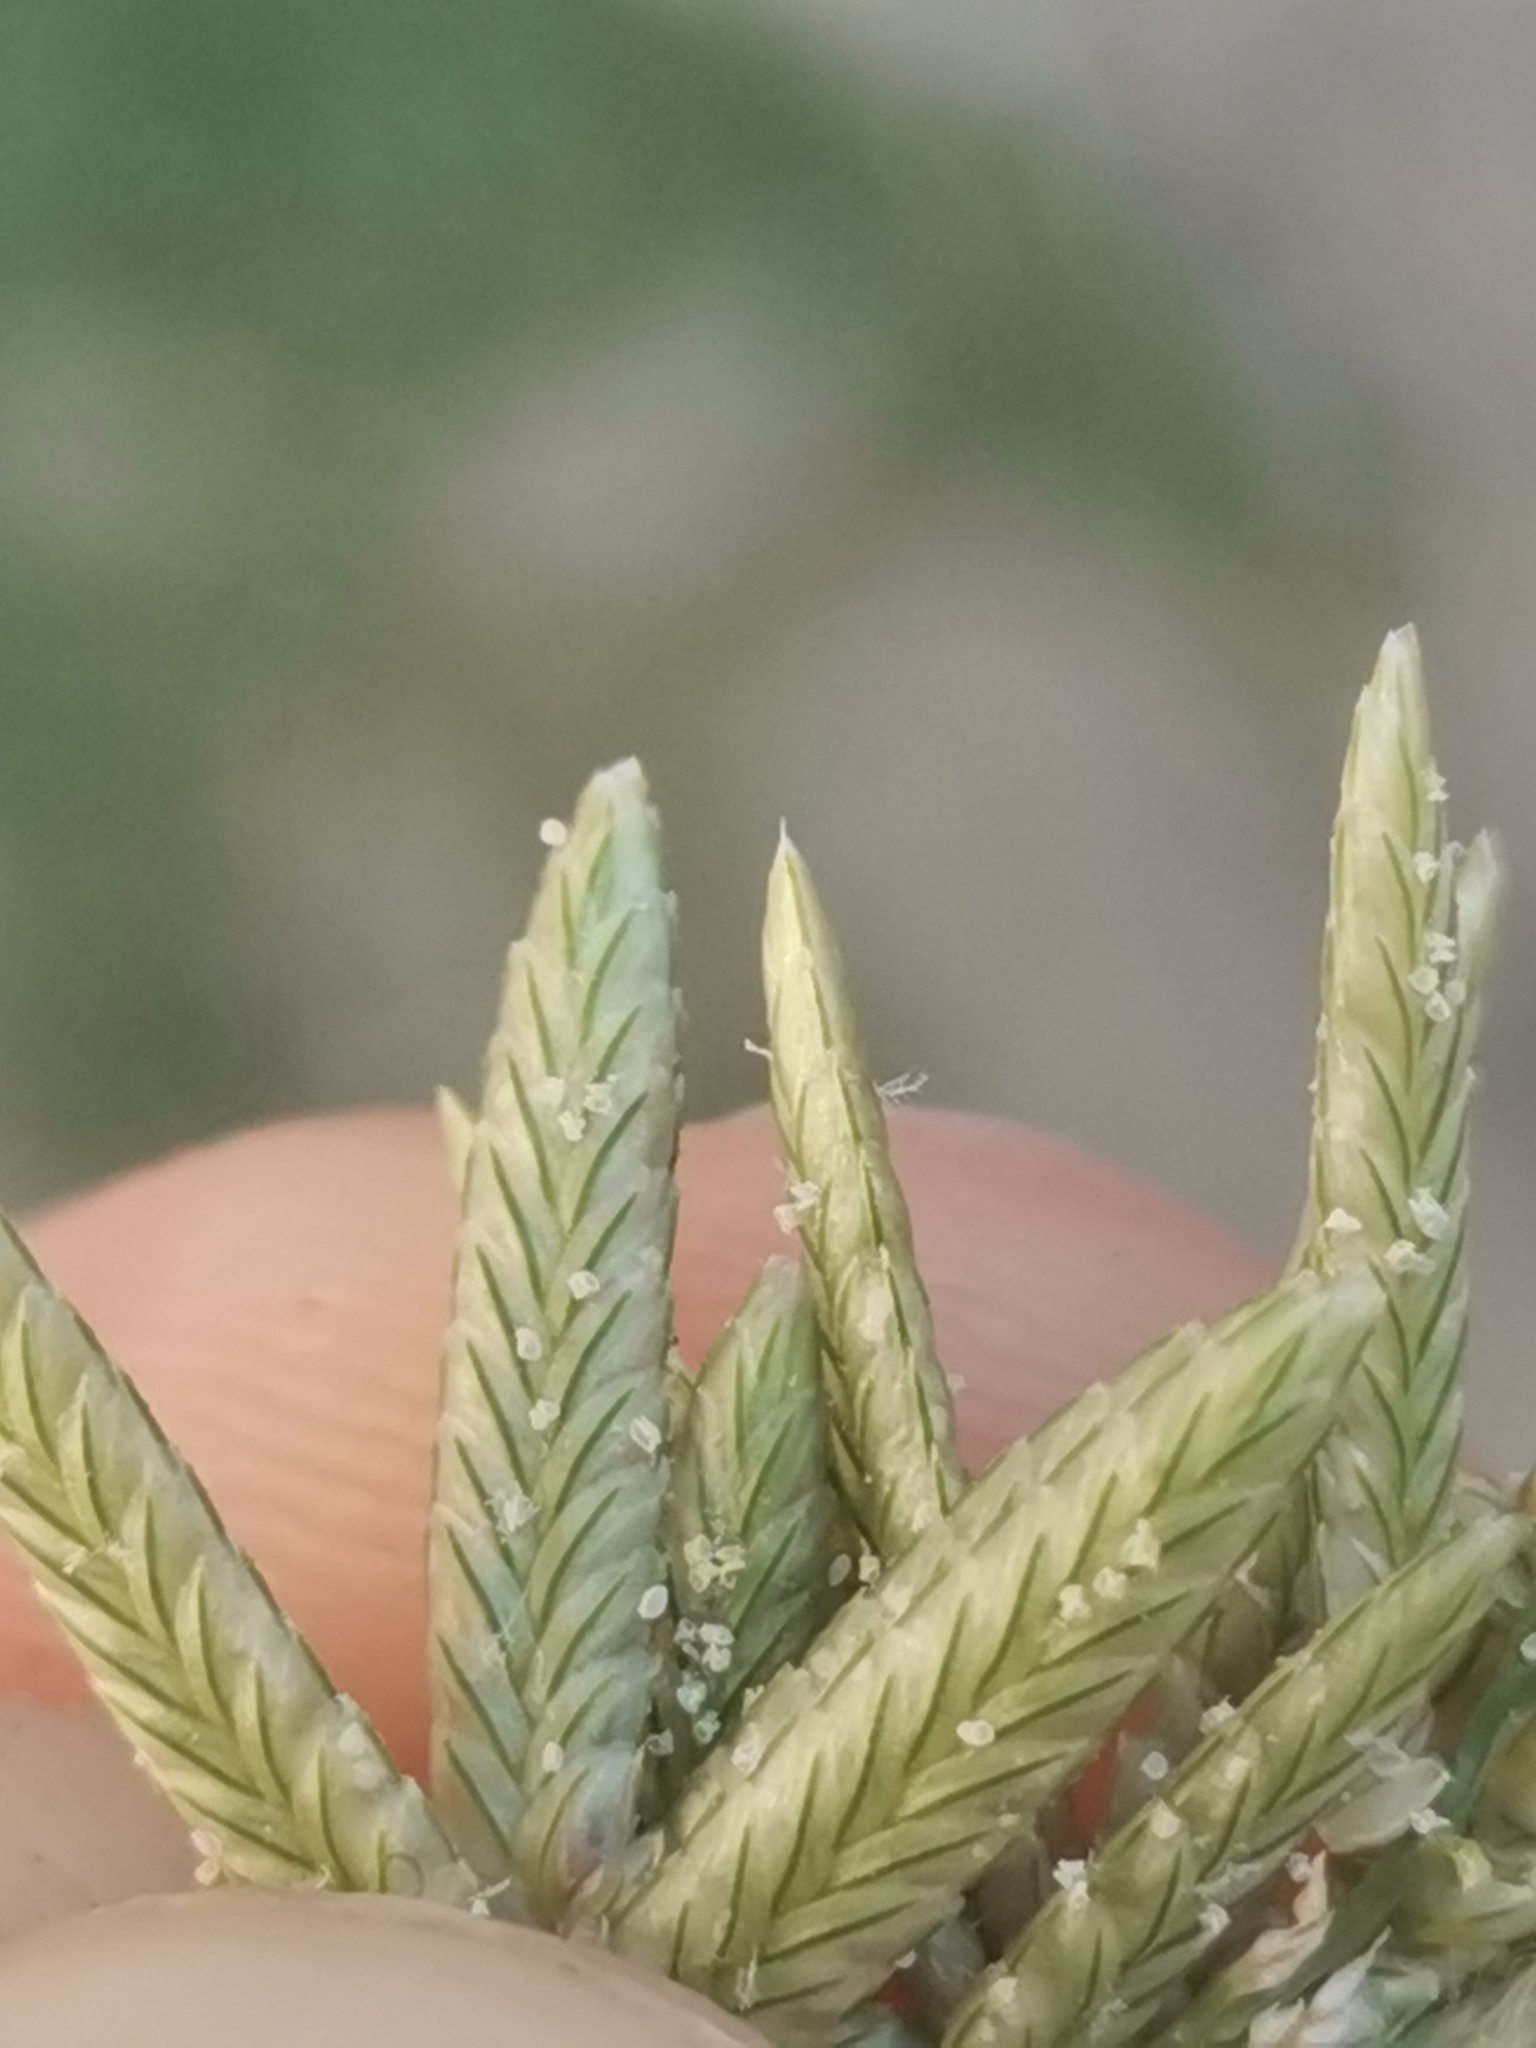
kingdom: Plantae
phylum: Tracheophyta
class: Liliopsida
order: Poales
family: Poaceae
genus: Eragrostis
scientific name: Eragrostis cilianensis
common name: Stinkgrass
